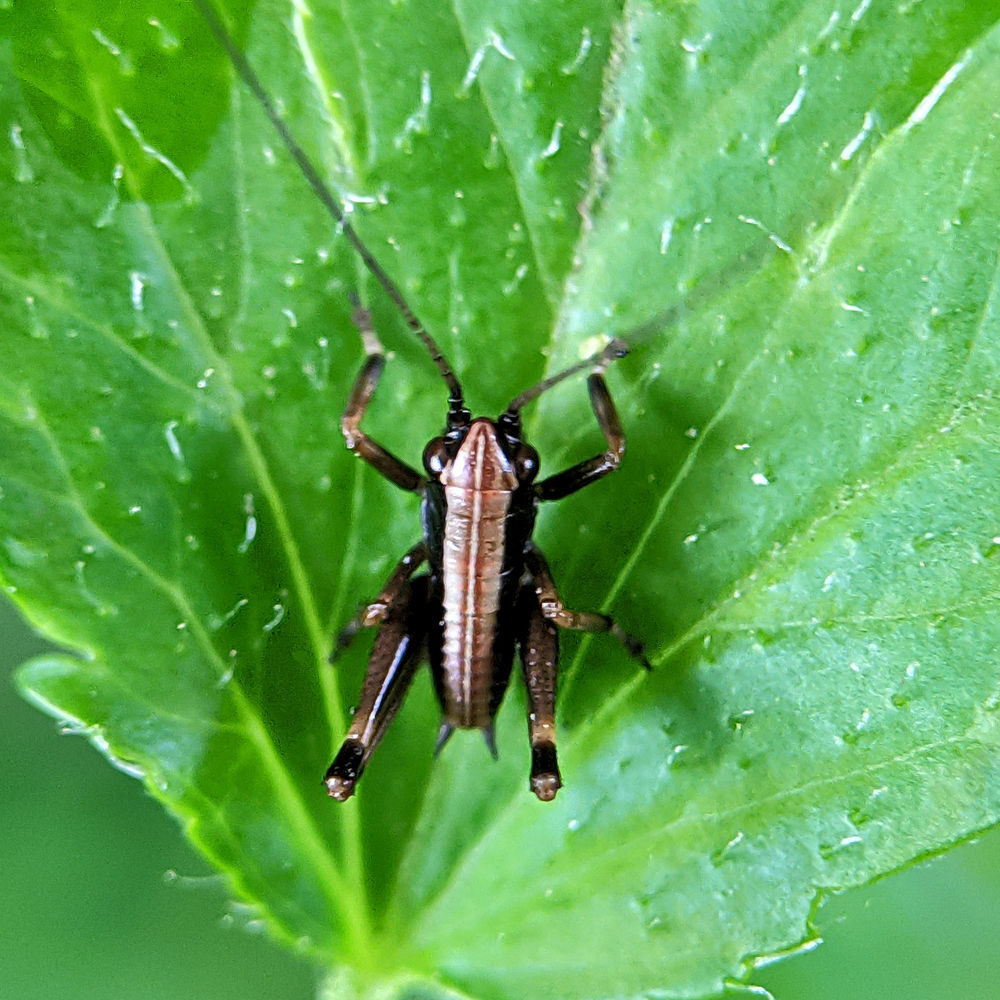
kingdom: Animalia
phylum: Arthropoda
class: Insecta
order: Orthoptera
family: Tettigoniidae
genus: Pholidoptera
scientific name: Pholidoptera griseoaptera
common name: Dark bush-cricket
